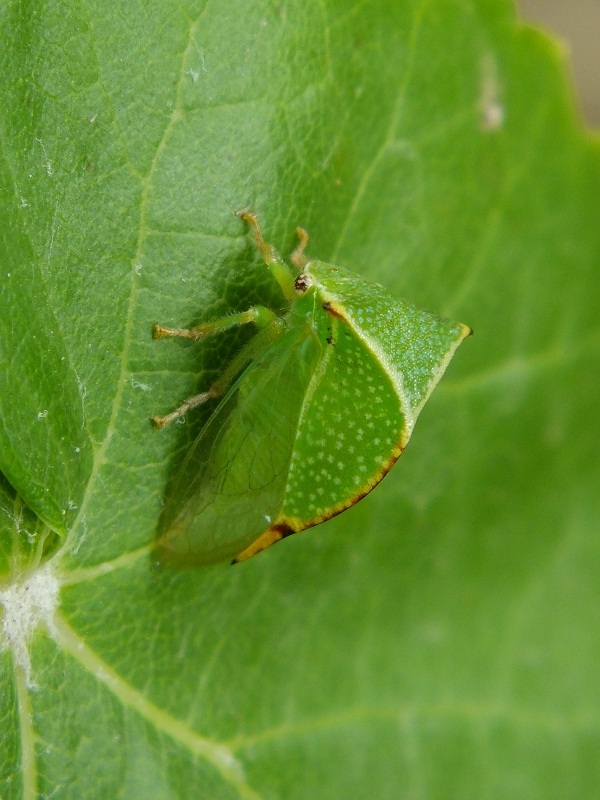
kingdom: Animalia
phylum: Arthropoda
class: Insecta
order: Hemiptera
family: Membracidae
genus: Stictocephala
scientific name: Stictocephala bisonia
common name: American buffalo treehopper
